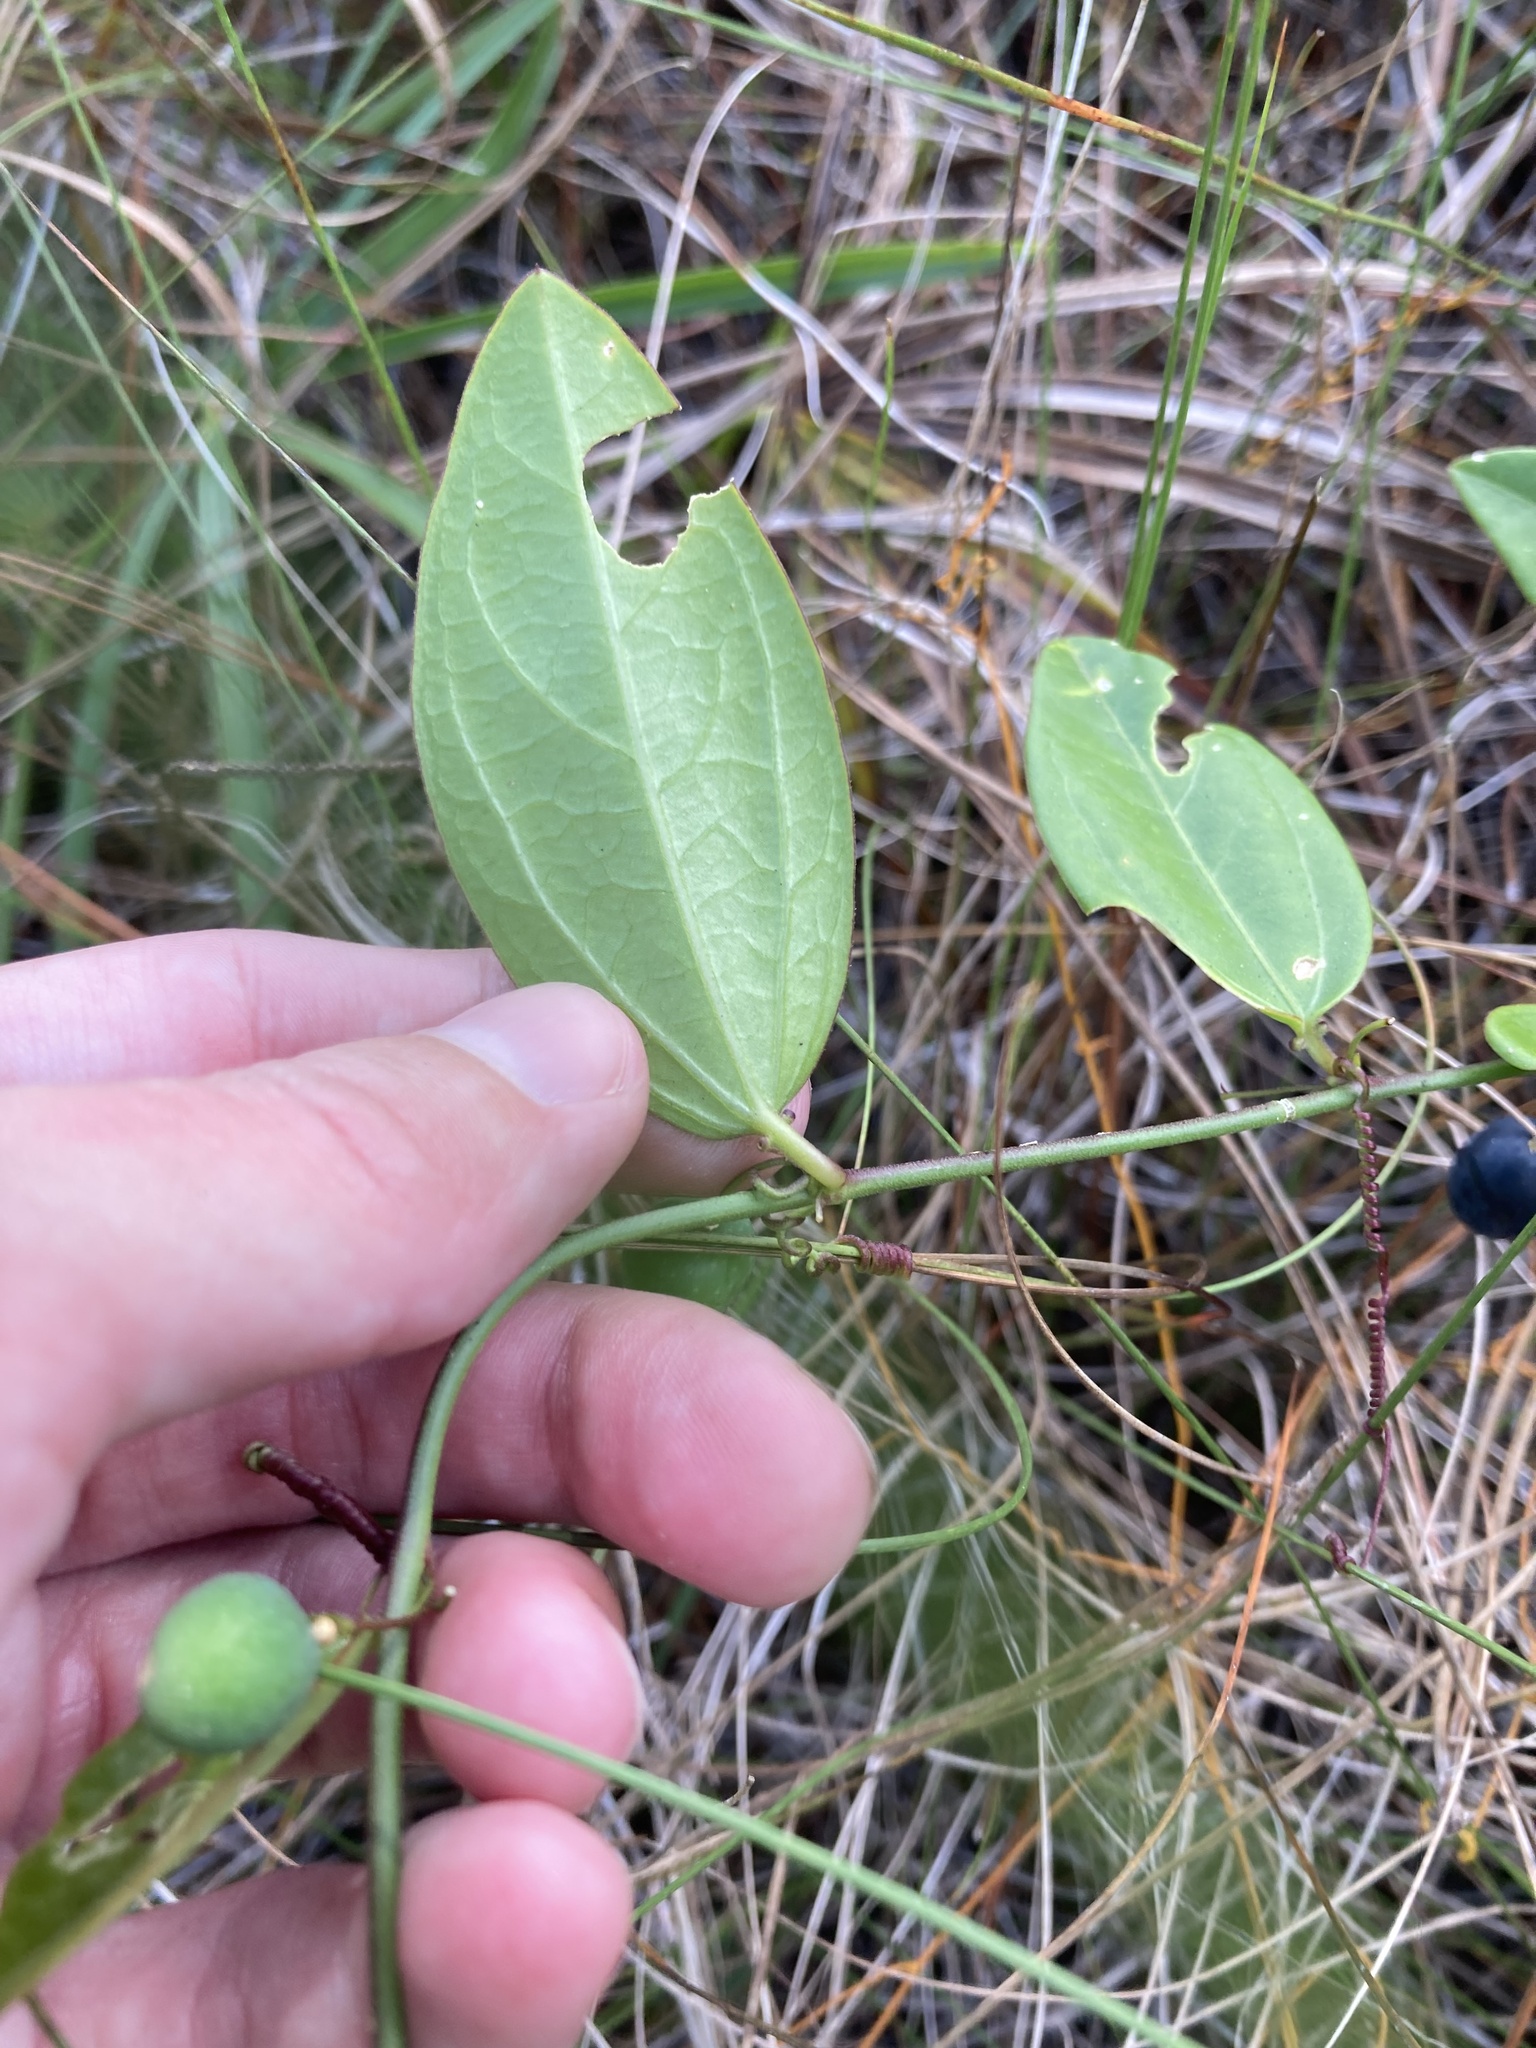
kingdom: Plantae
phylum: Tracheophyta
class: Magnoliopsida
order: Malpighiales
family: Passifloraceae
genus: Passiflora
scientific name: Passiflora pallida
